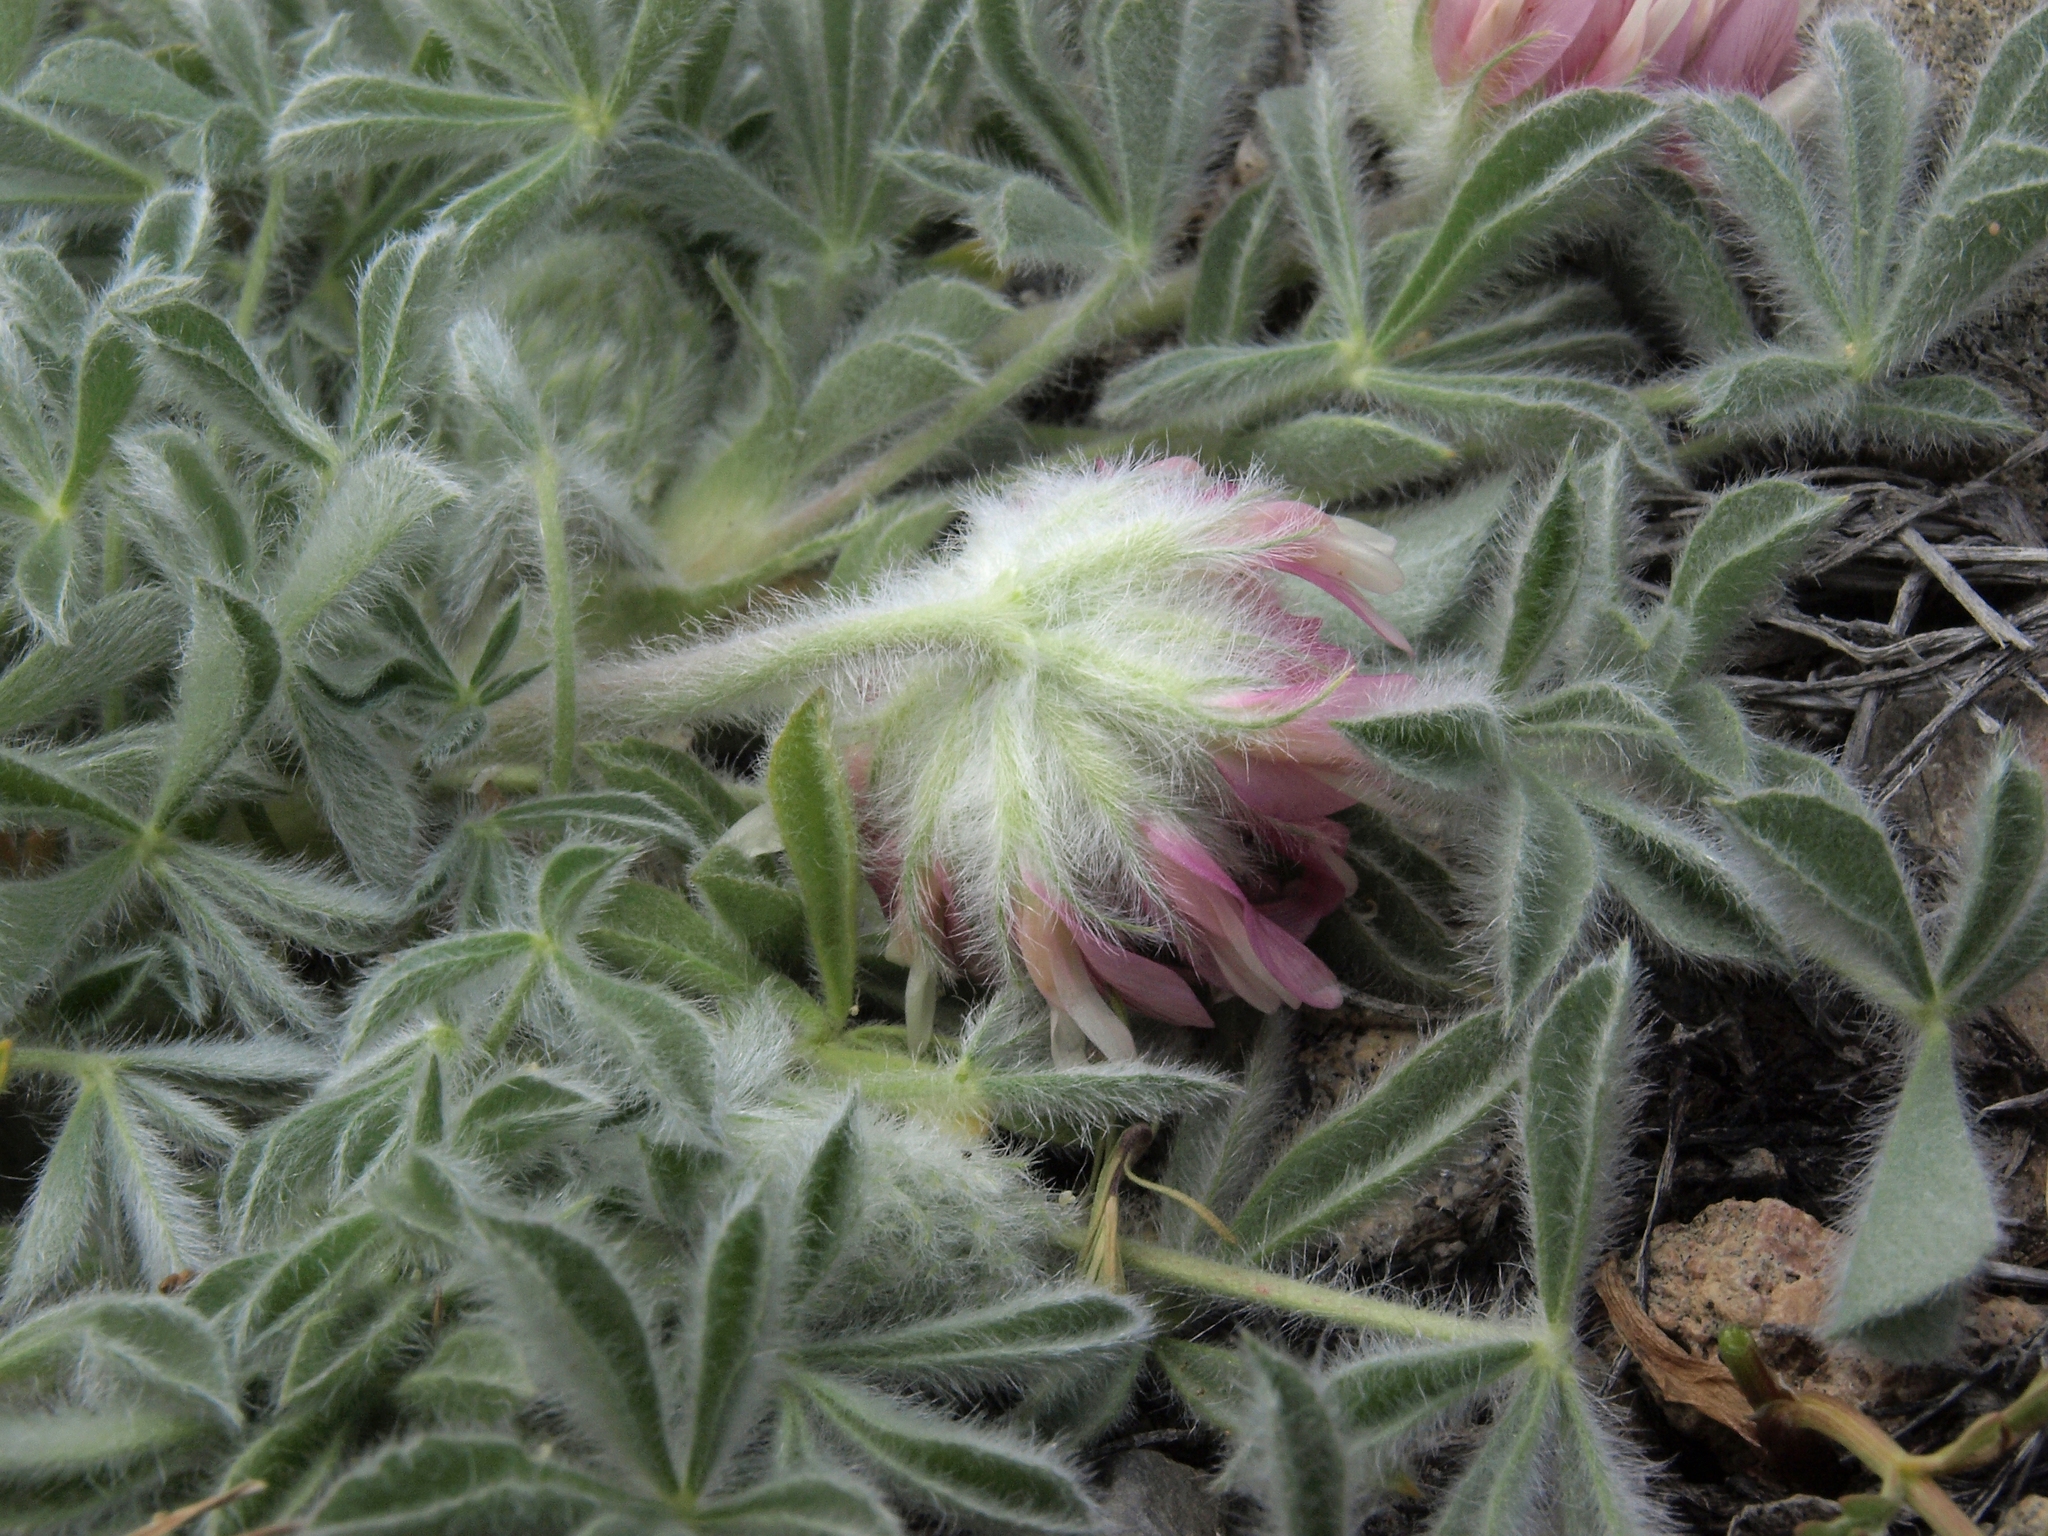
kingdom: Plantae
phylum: Tracheophyta
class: Magnoliopsida
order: Fabales
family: Fabaceae
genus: Trifolium
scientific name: Trifolium andersonii
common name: Anderson's clover
